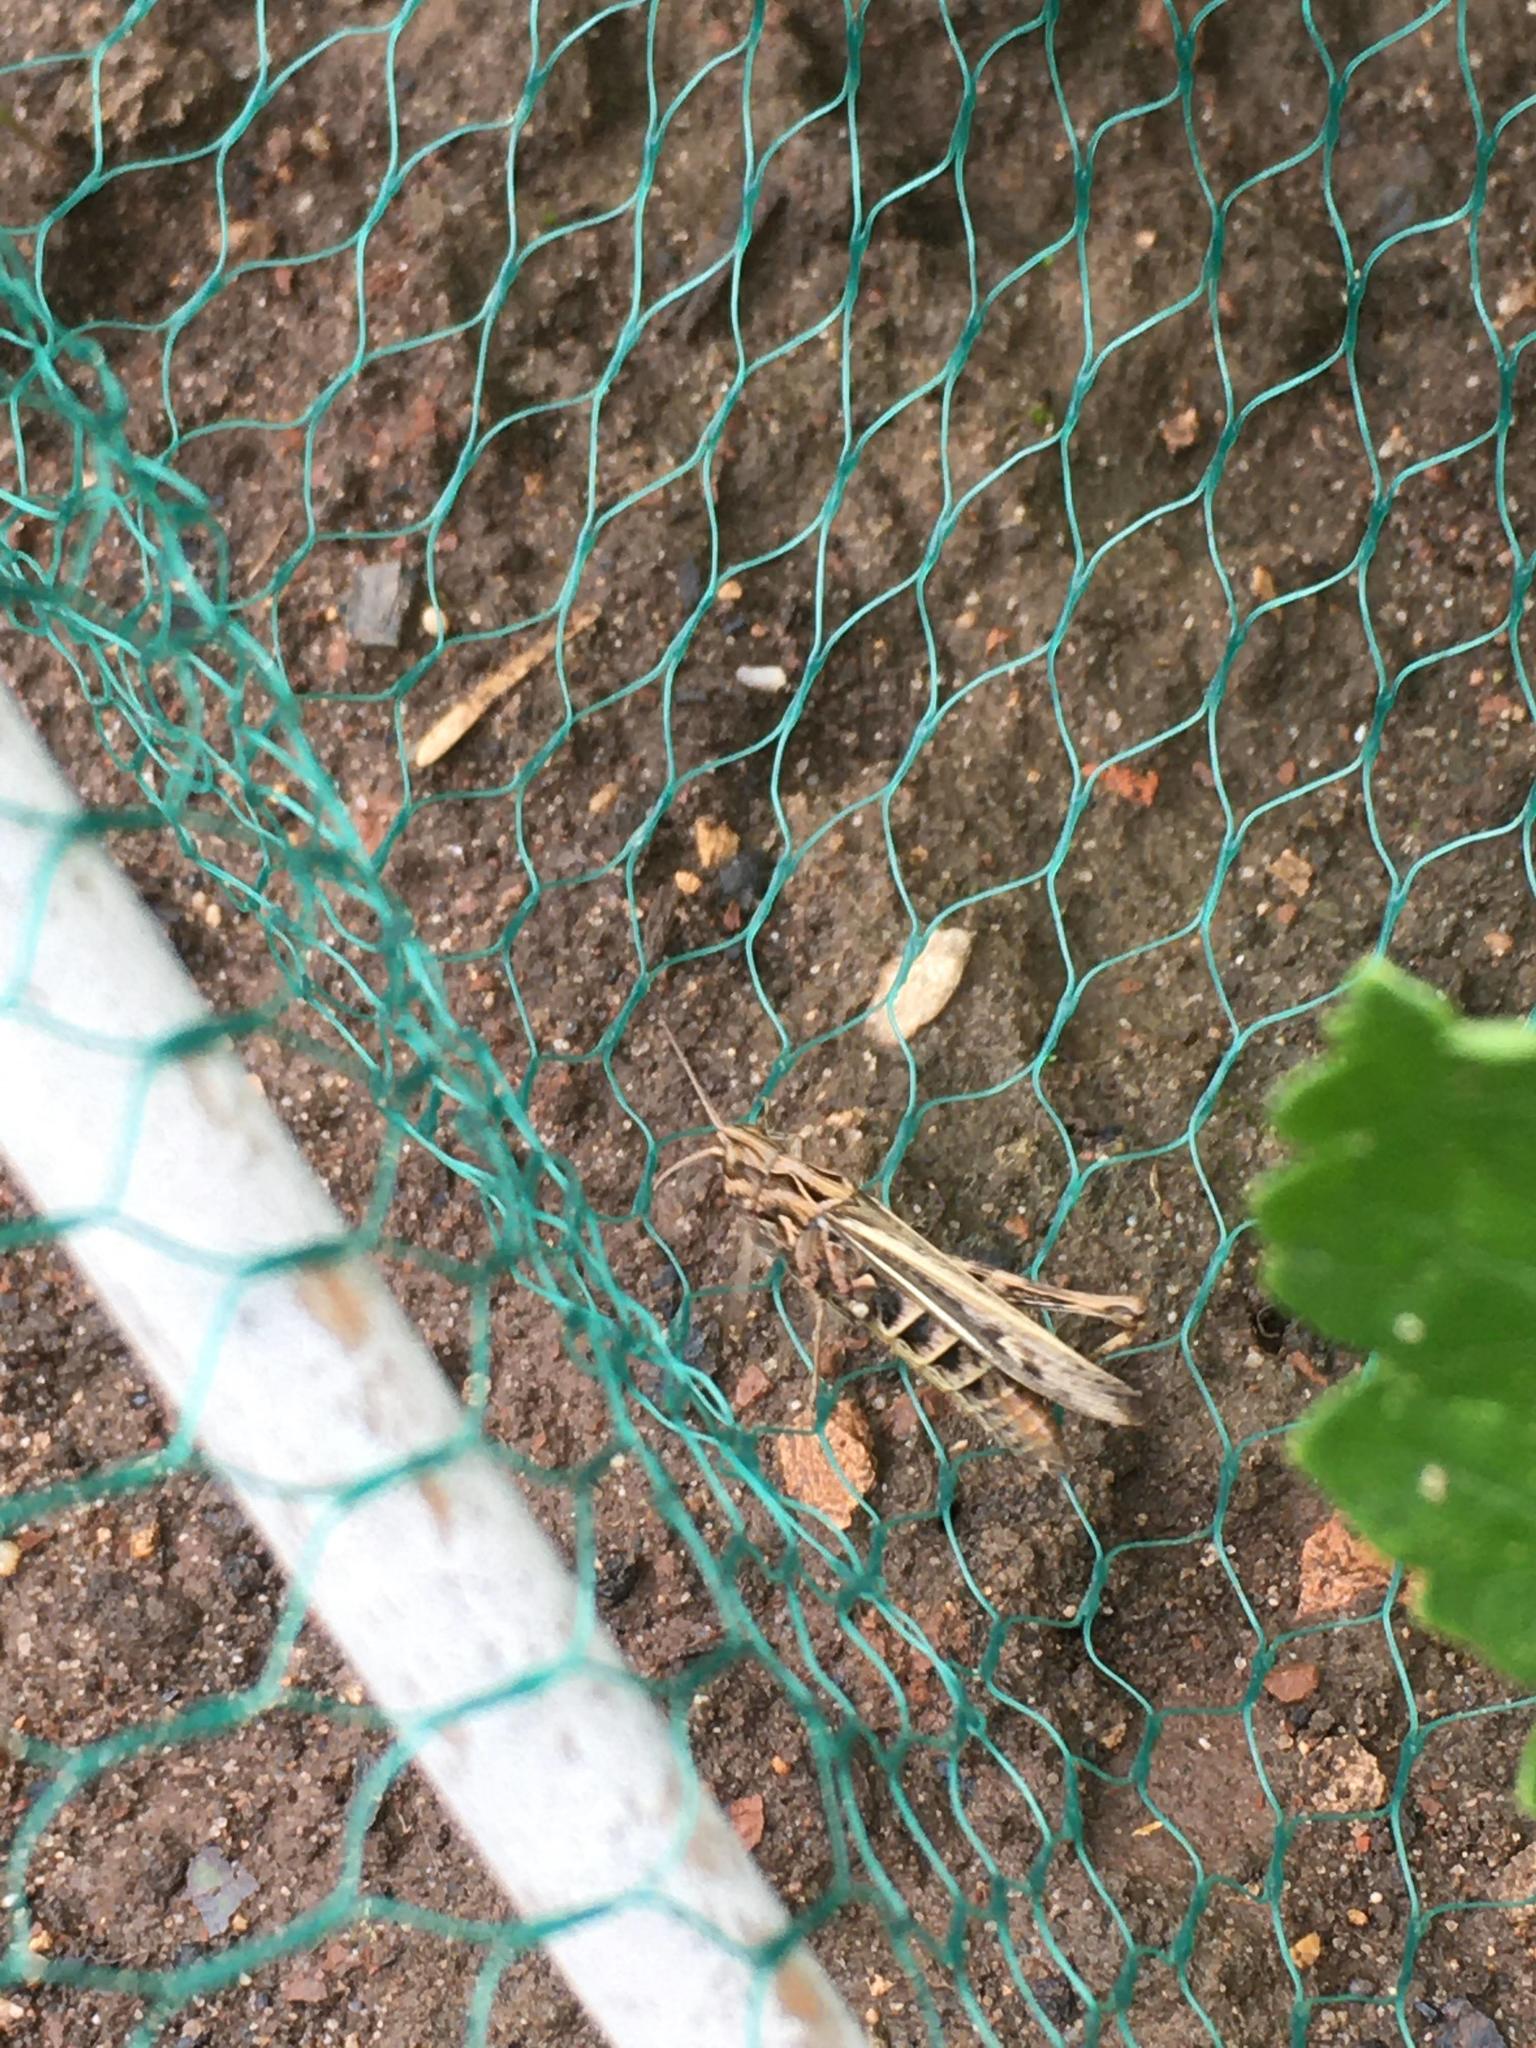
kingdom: Animalia
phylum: Arthropoda
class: Insecta
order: Orthoptera
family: Acrididae
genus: Chorthippus
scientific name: Chorthippus brunneus
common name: Field grasshopper
